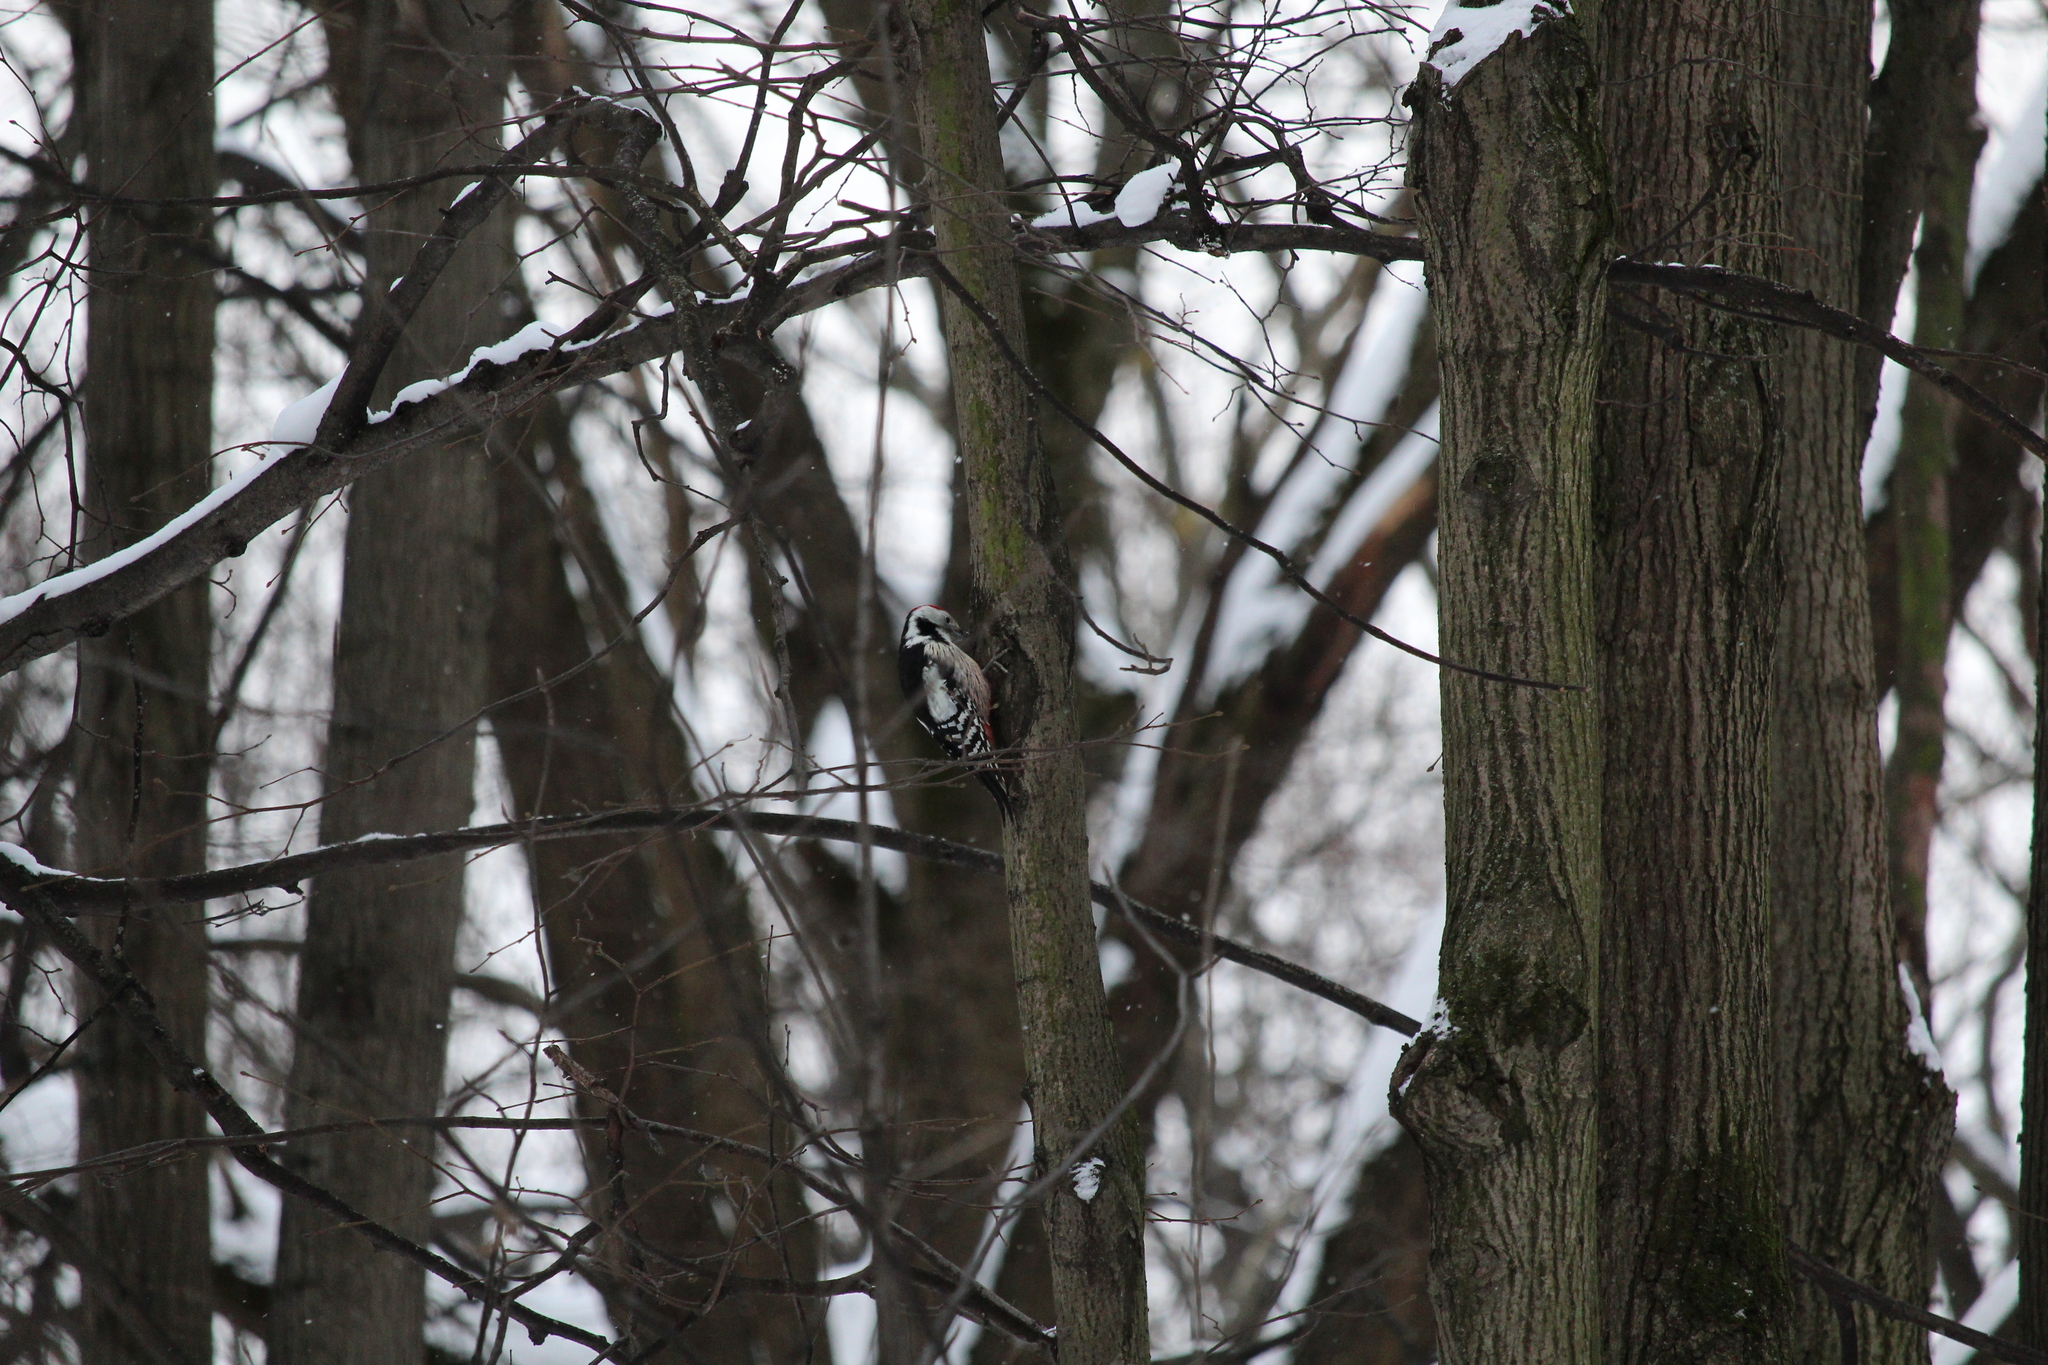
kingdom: Animalia
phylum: Chordata
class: Aves
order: Piciformes
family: Picidae
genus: Dendrocoptes
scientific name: Dendrocoptes medius
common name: Middle spotted woodpecker
